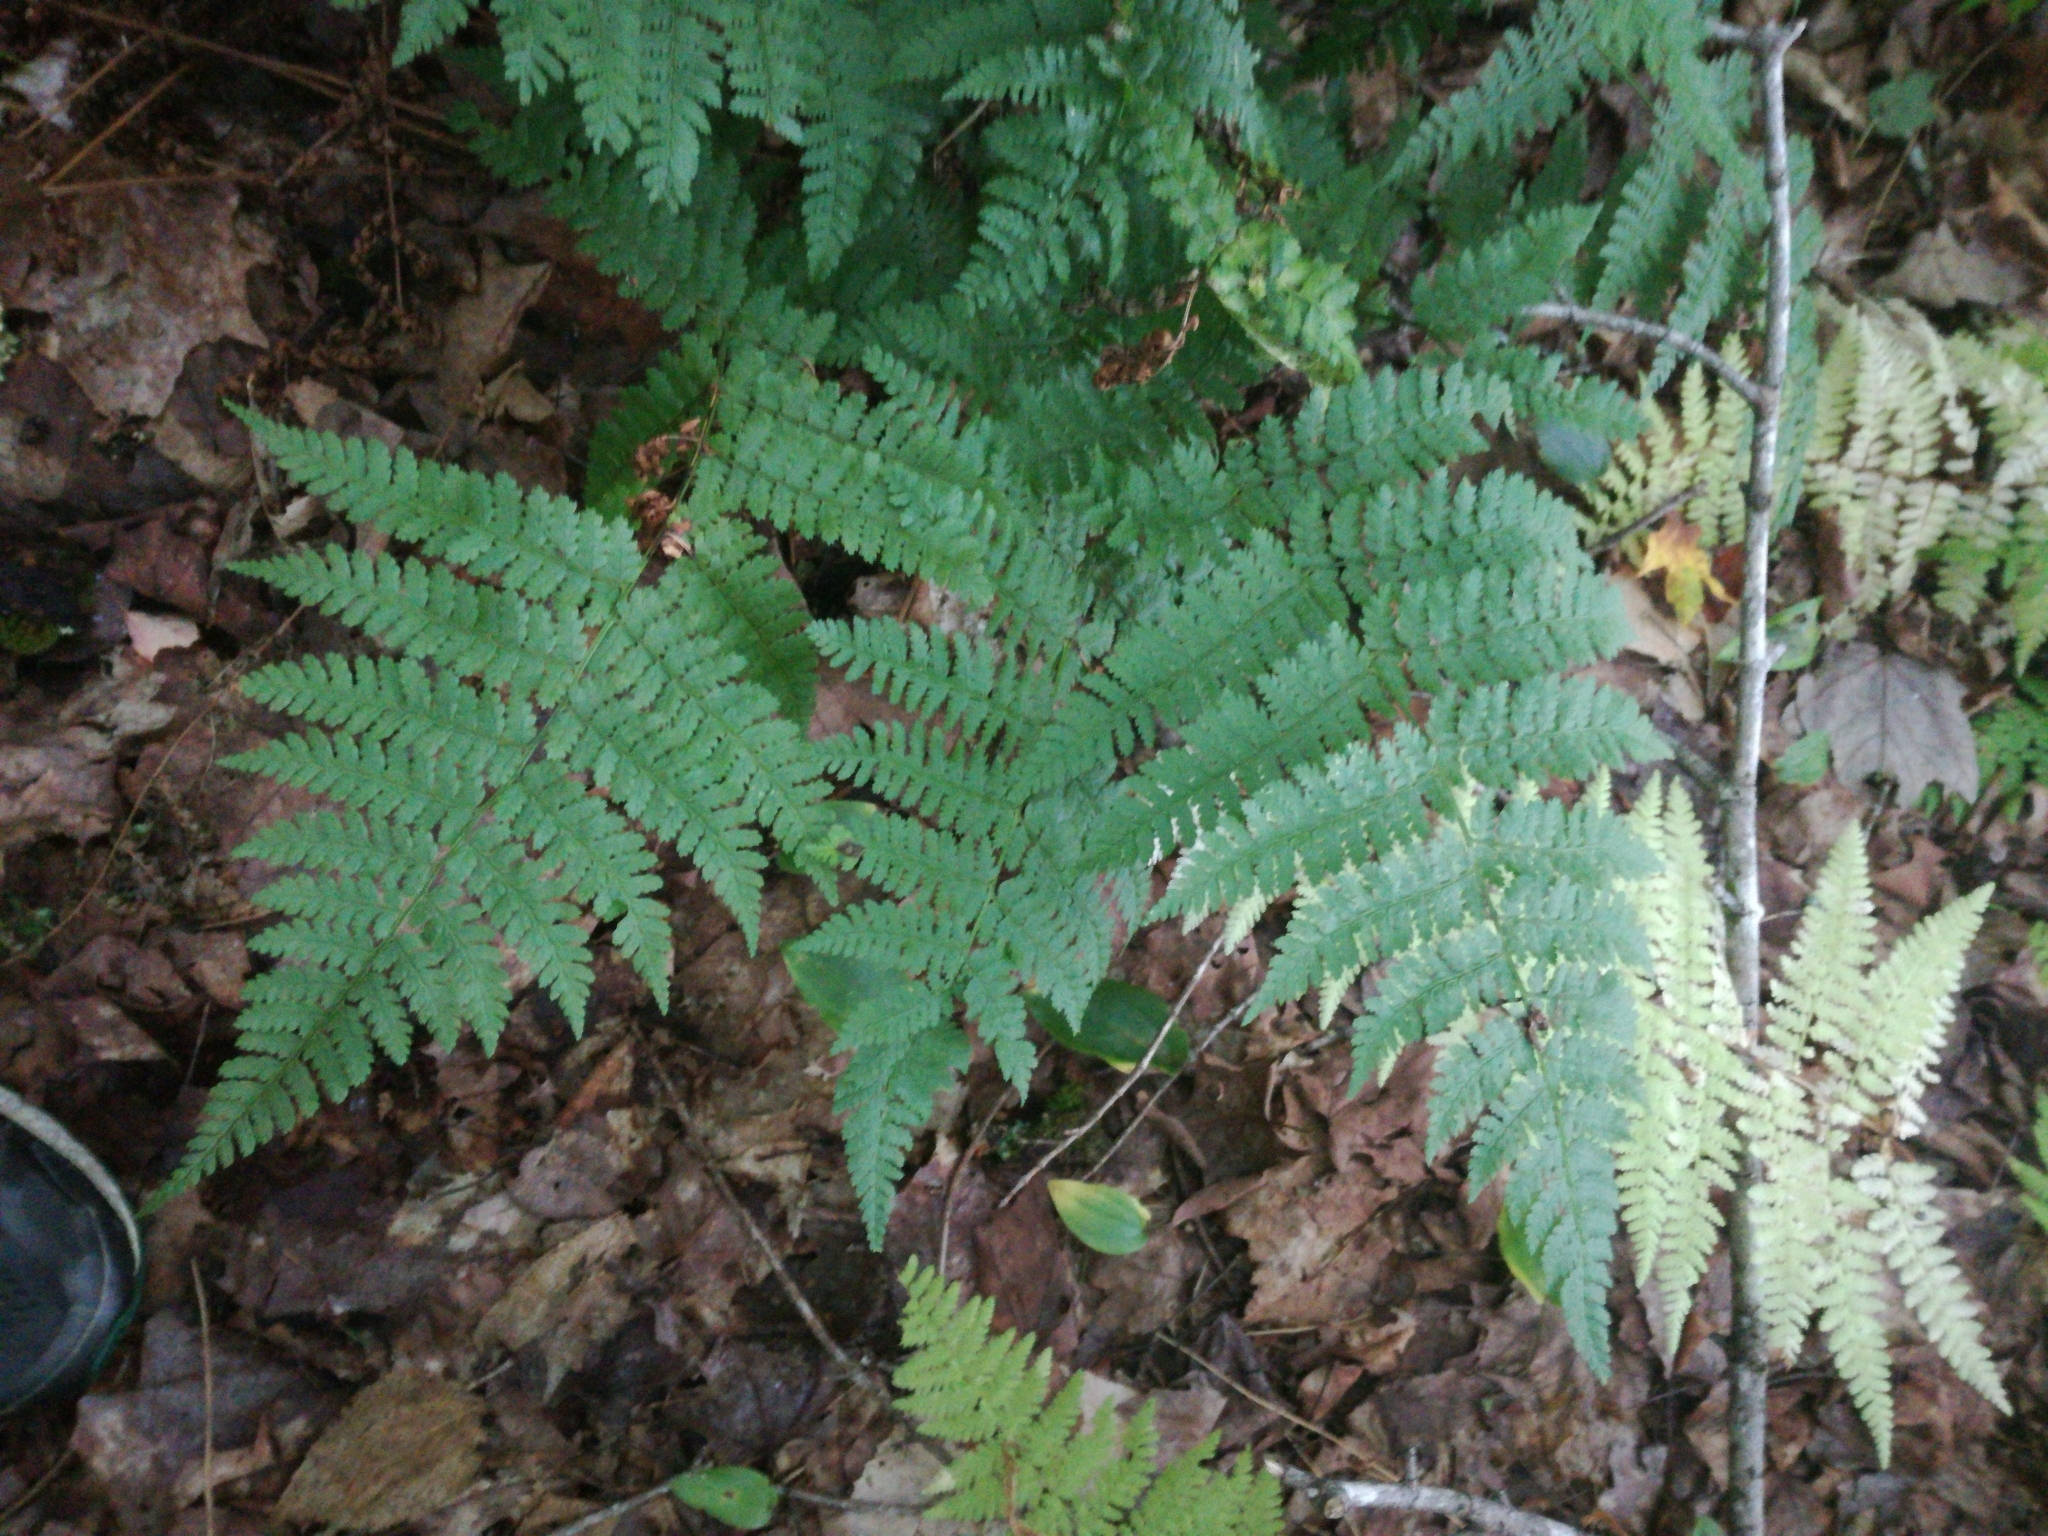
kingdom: Plantae
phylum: Tracheophyta
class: Polypodiopsida
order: Polypodiales
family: Dryopteridaceae
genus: Dryopteris
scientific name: Dryopteris intermedia
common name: Evergreen wood fern
